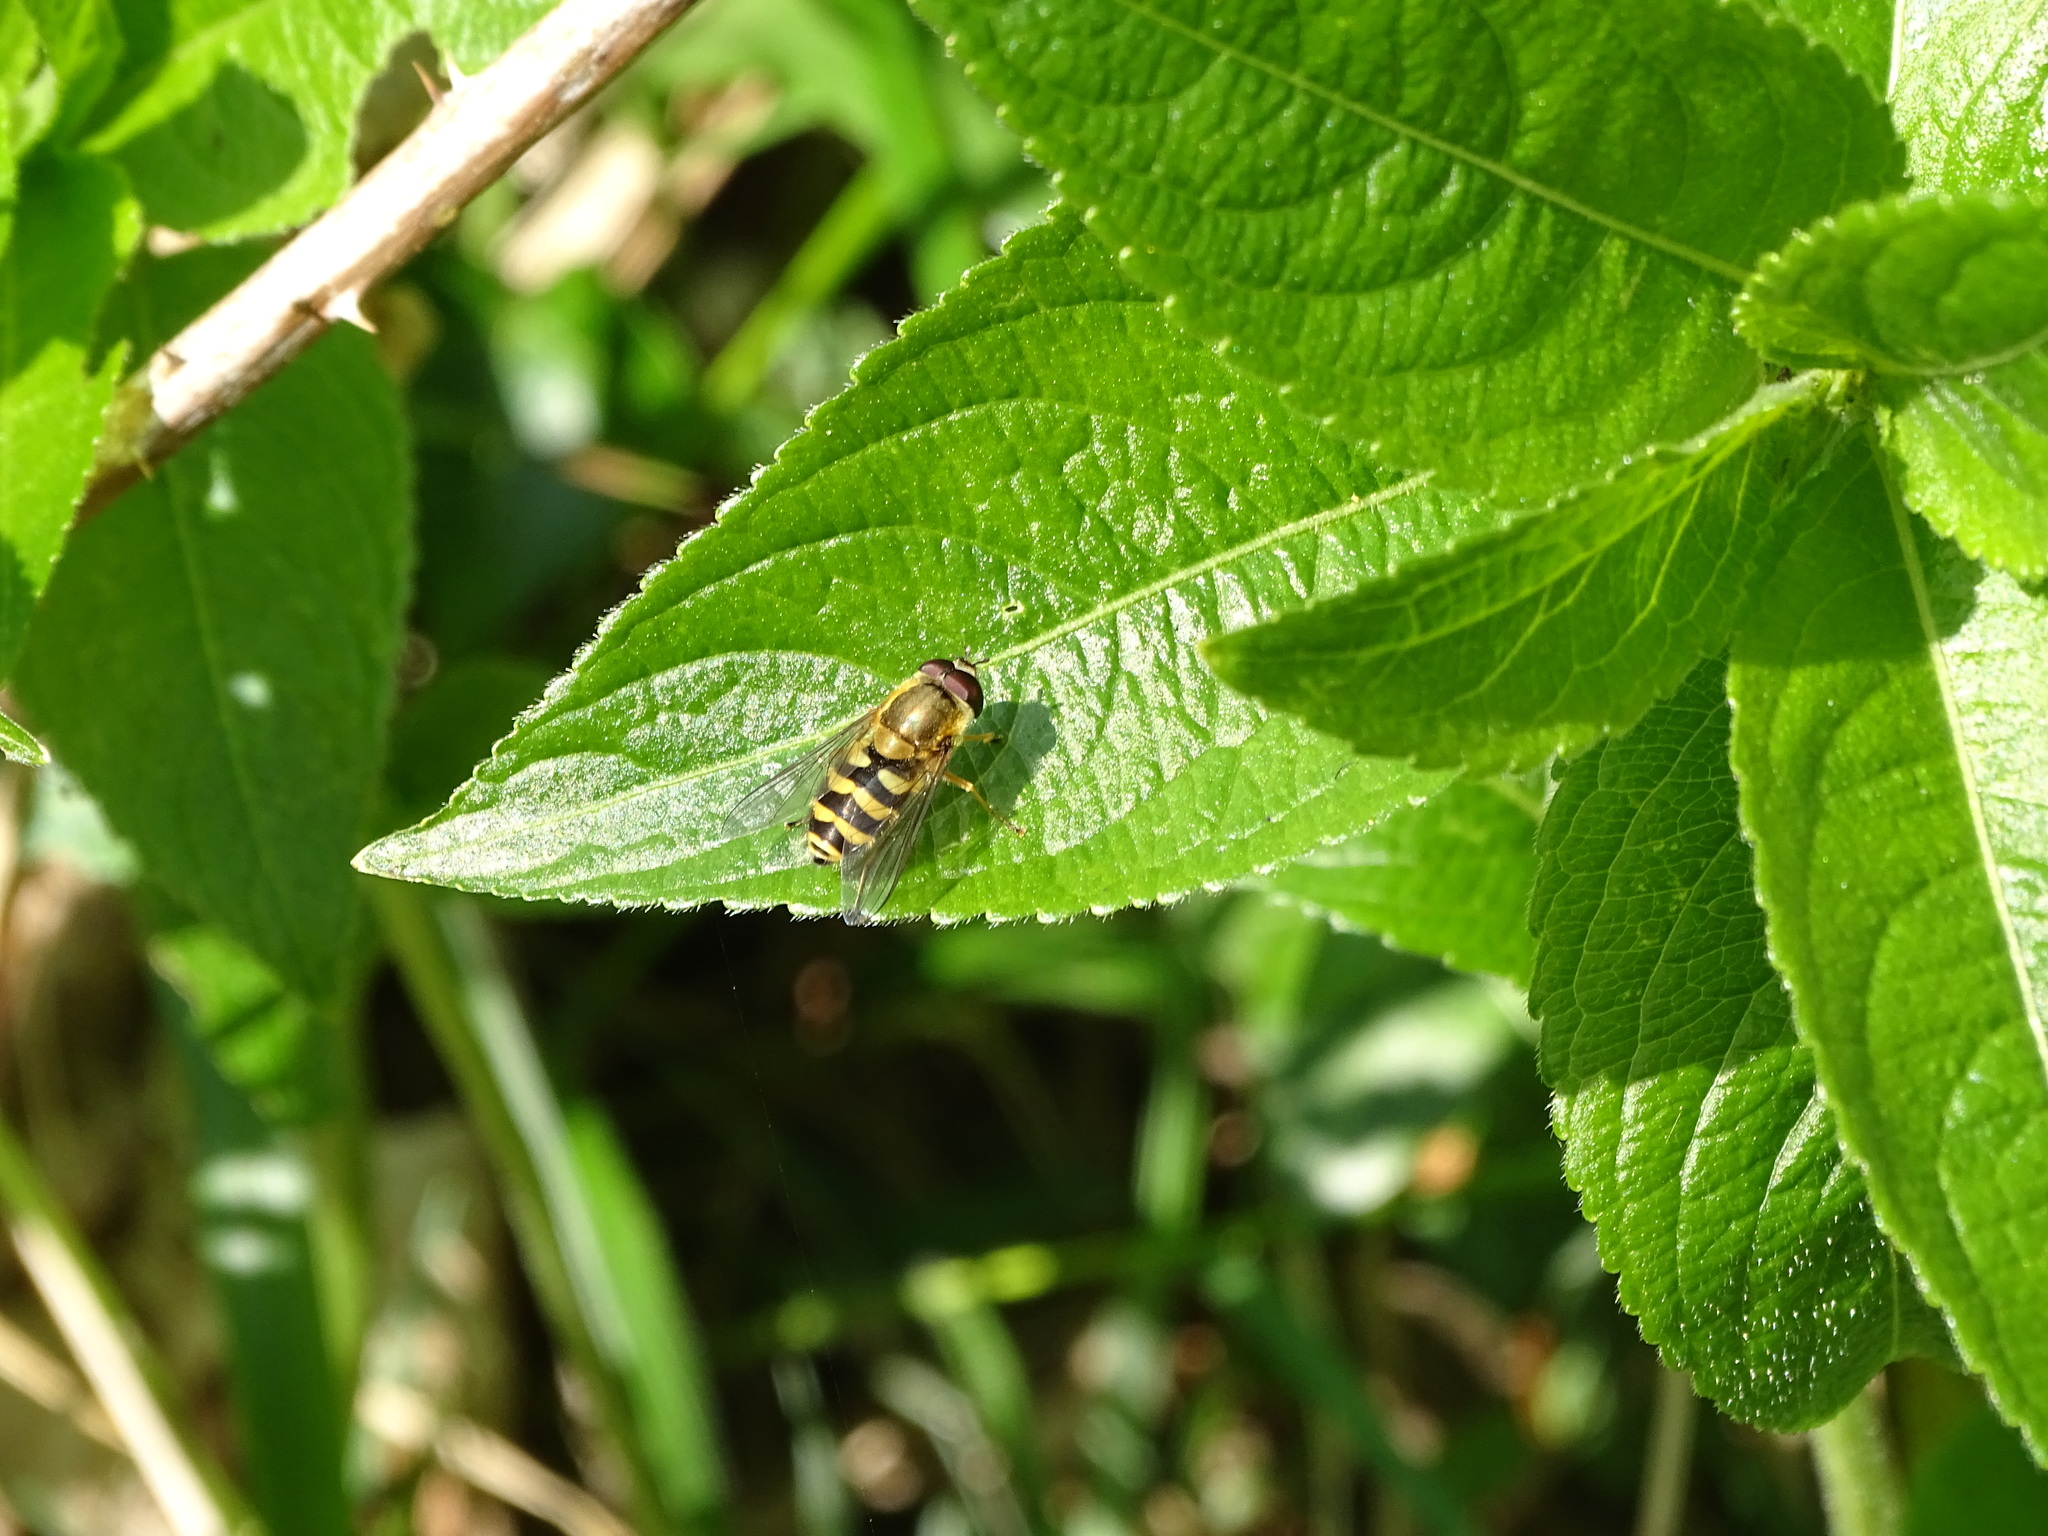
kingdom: Animalia
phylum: Arthropoda
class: Insecta
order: Diptera
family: Syrphidae
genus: Syrphus
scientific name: Syrphus
